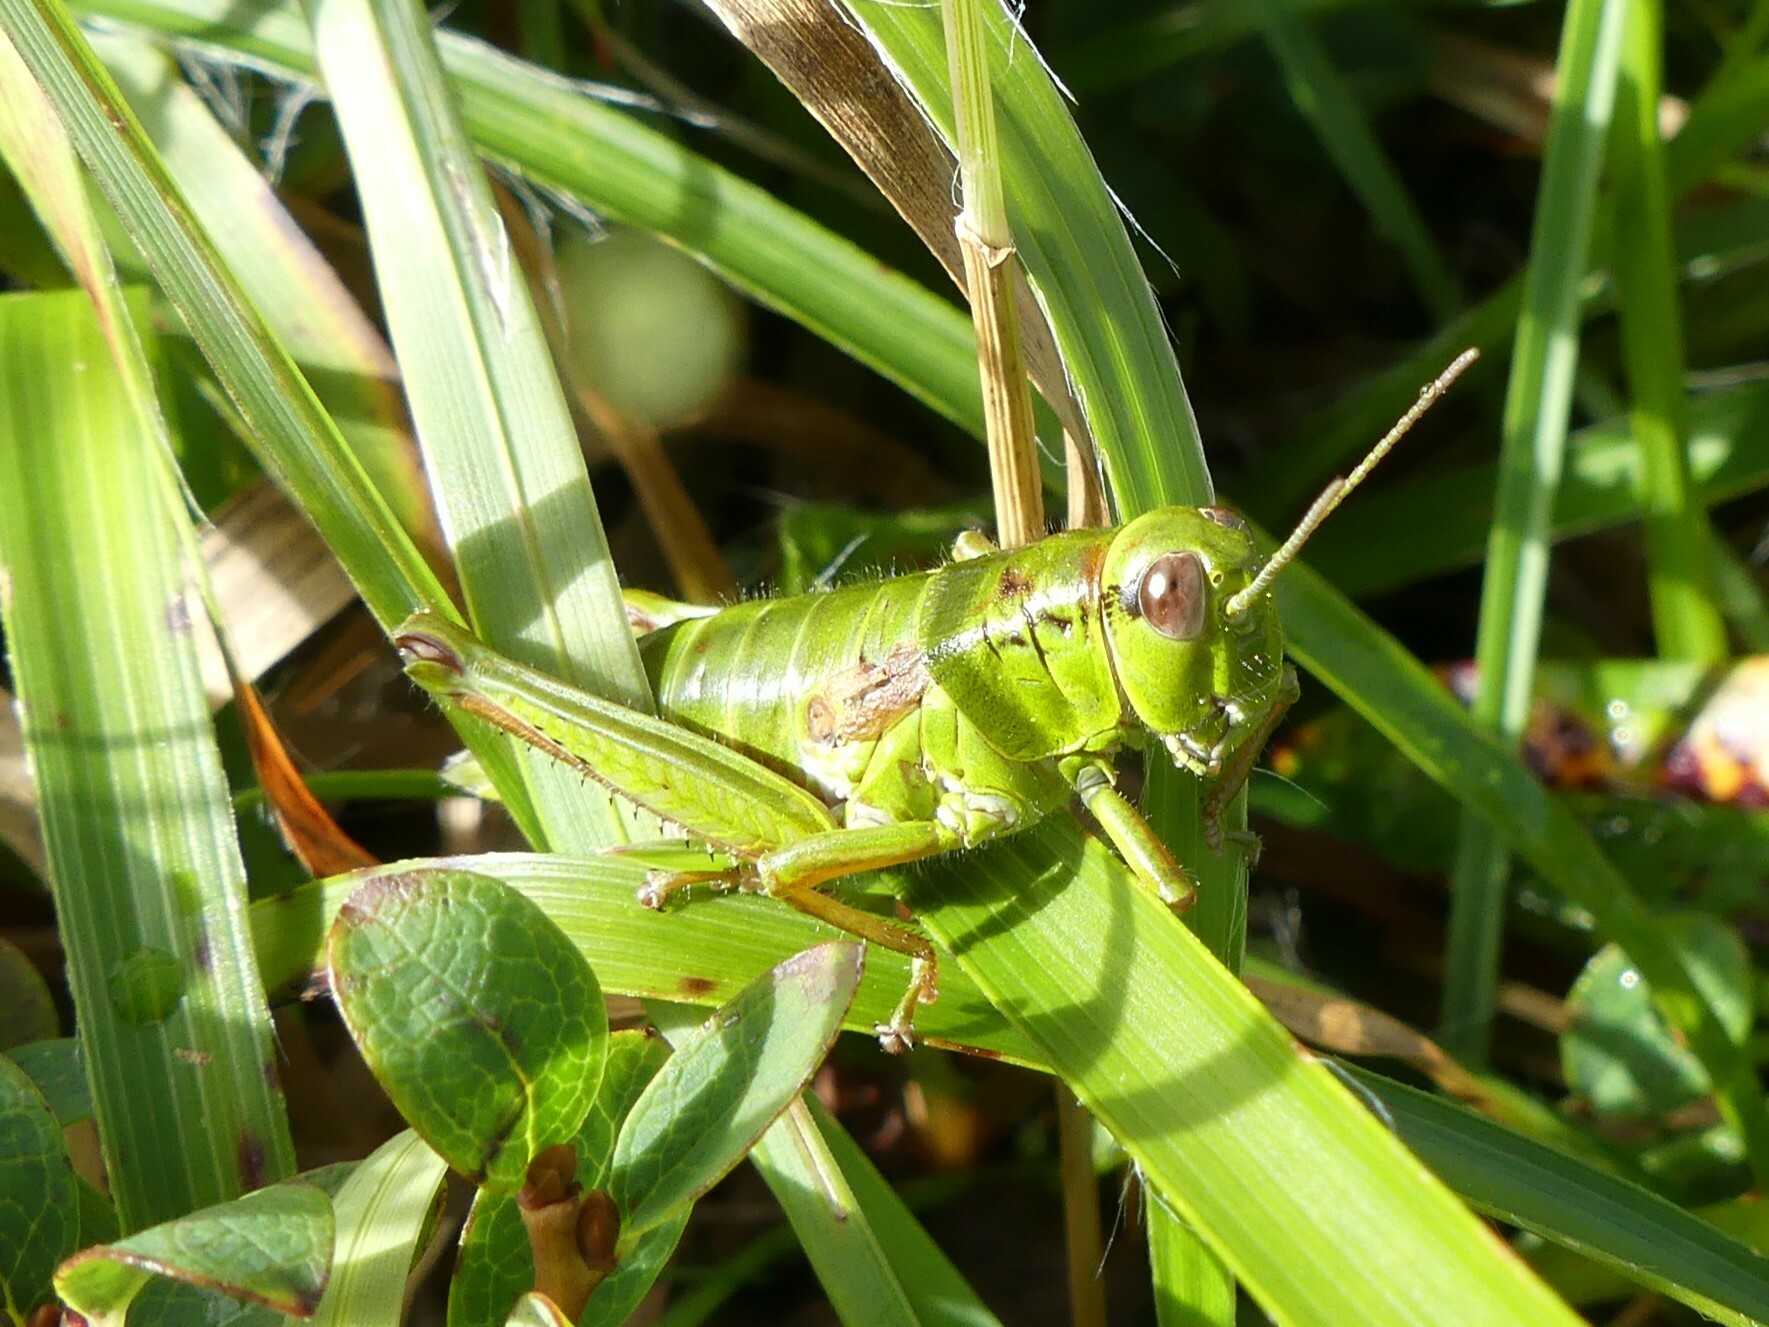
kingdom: Animalia
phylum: Arthropoda
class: Insecta
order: Orthoptera
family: Acrididae
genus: Miramella
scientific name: Miramella alpina
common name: Green mountain grasshopper
